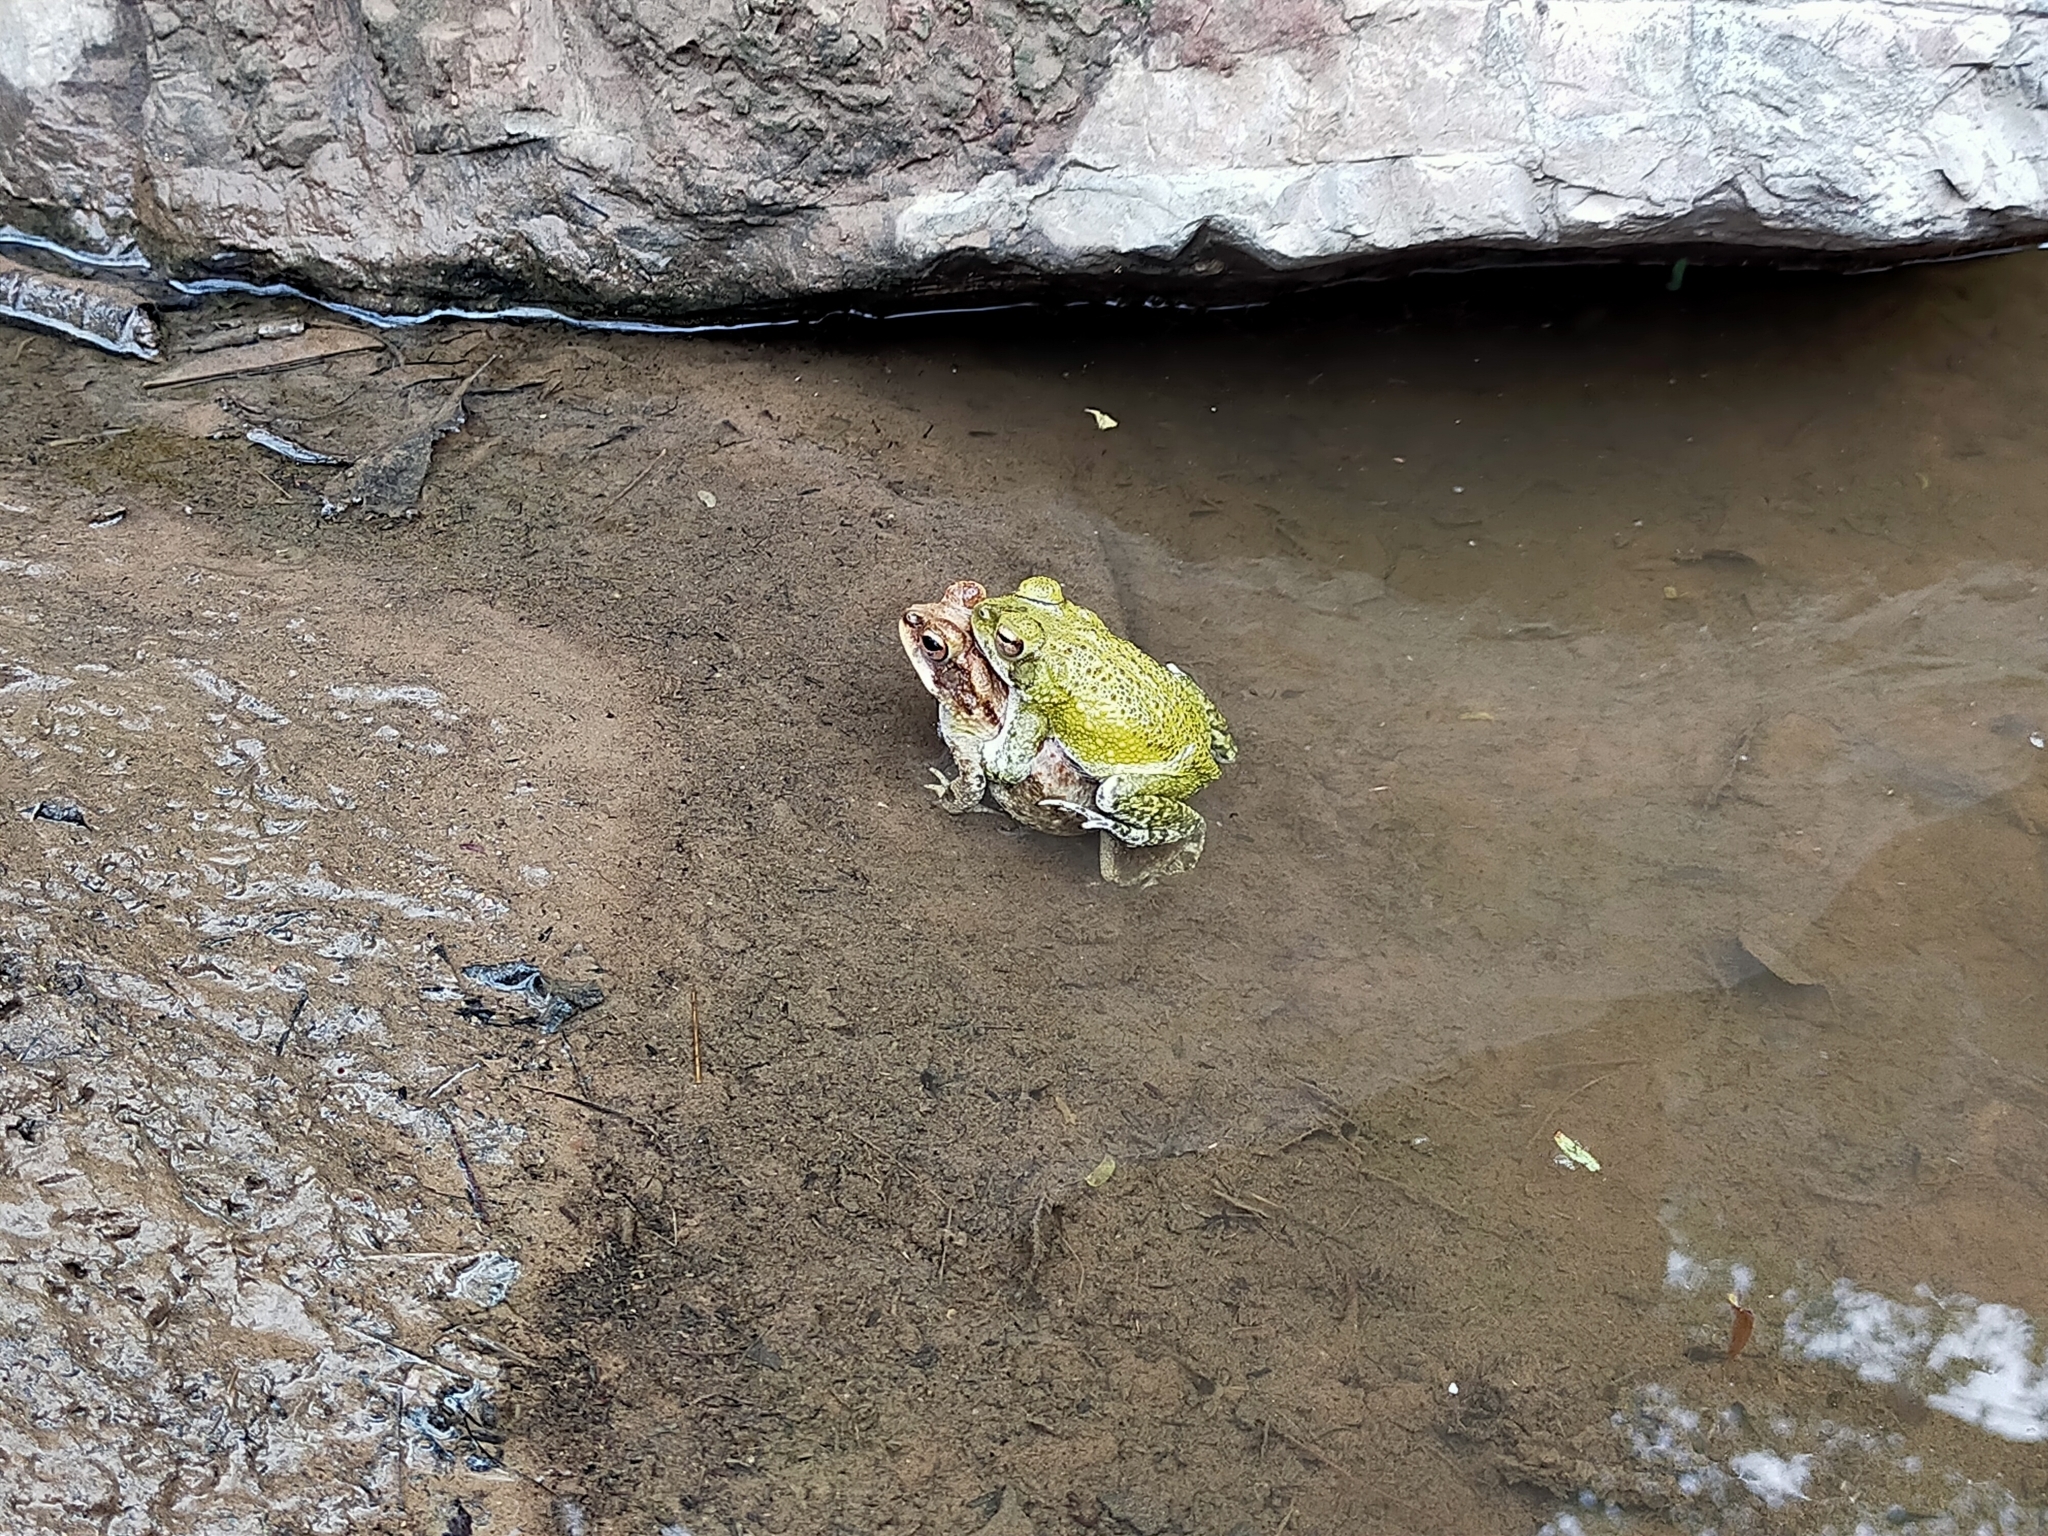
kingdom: Animalia
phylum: Chordata
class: Amphibia
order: Anura
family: Bufonidae
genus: Incilius
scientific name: Incilius mazatlanensis
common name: Sinaloa toad
